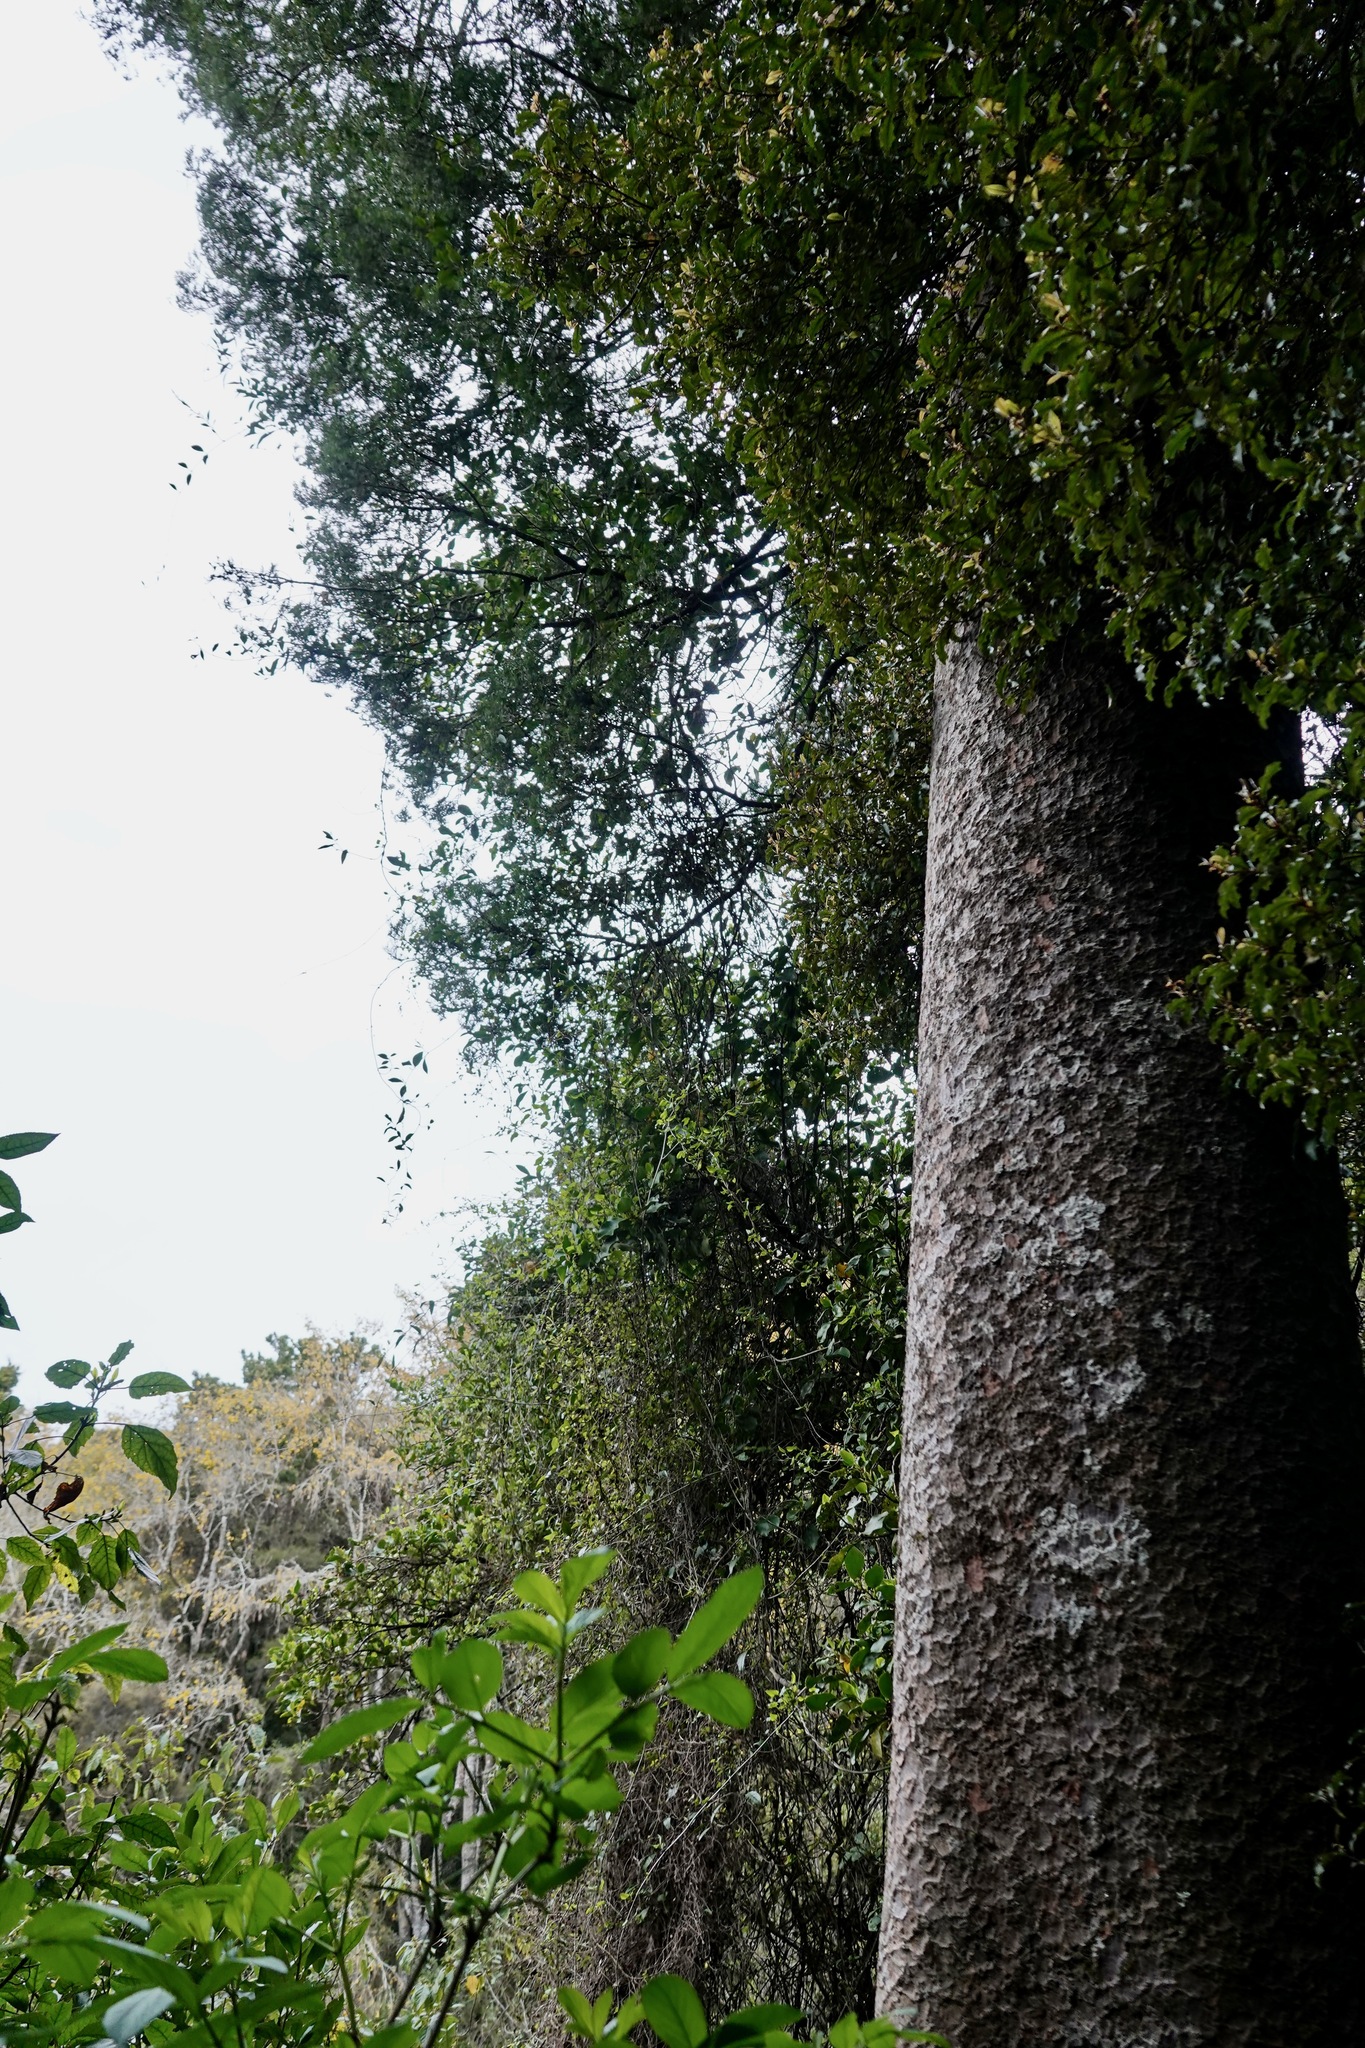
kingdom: Plantae
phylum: Tracheophyta
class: Pinopsida
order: Pinales
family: Podocarpaceae
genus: Prumnopitys
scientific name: Prumnopitys taxifolia
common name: Matai
